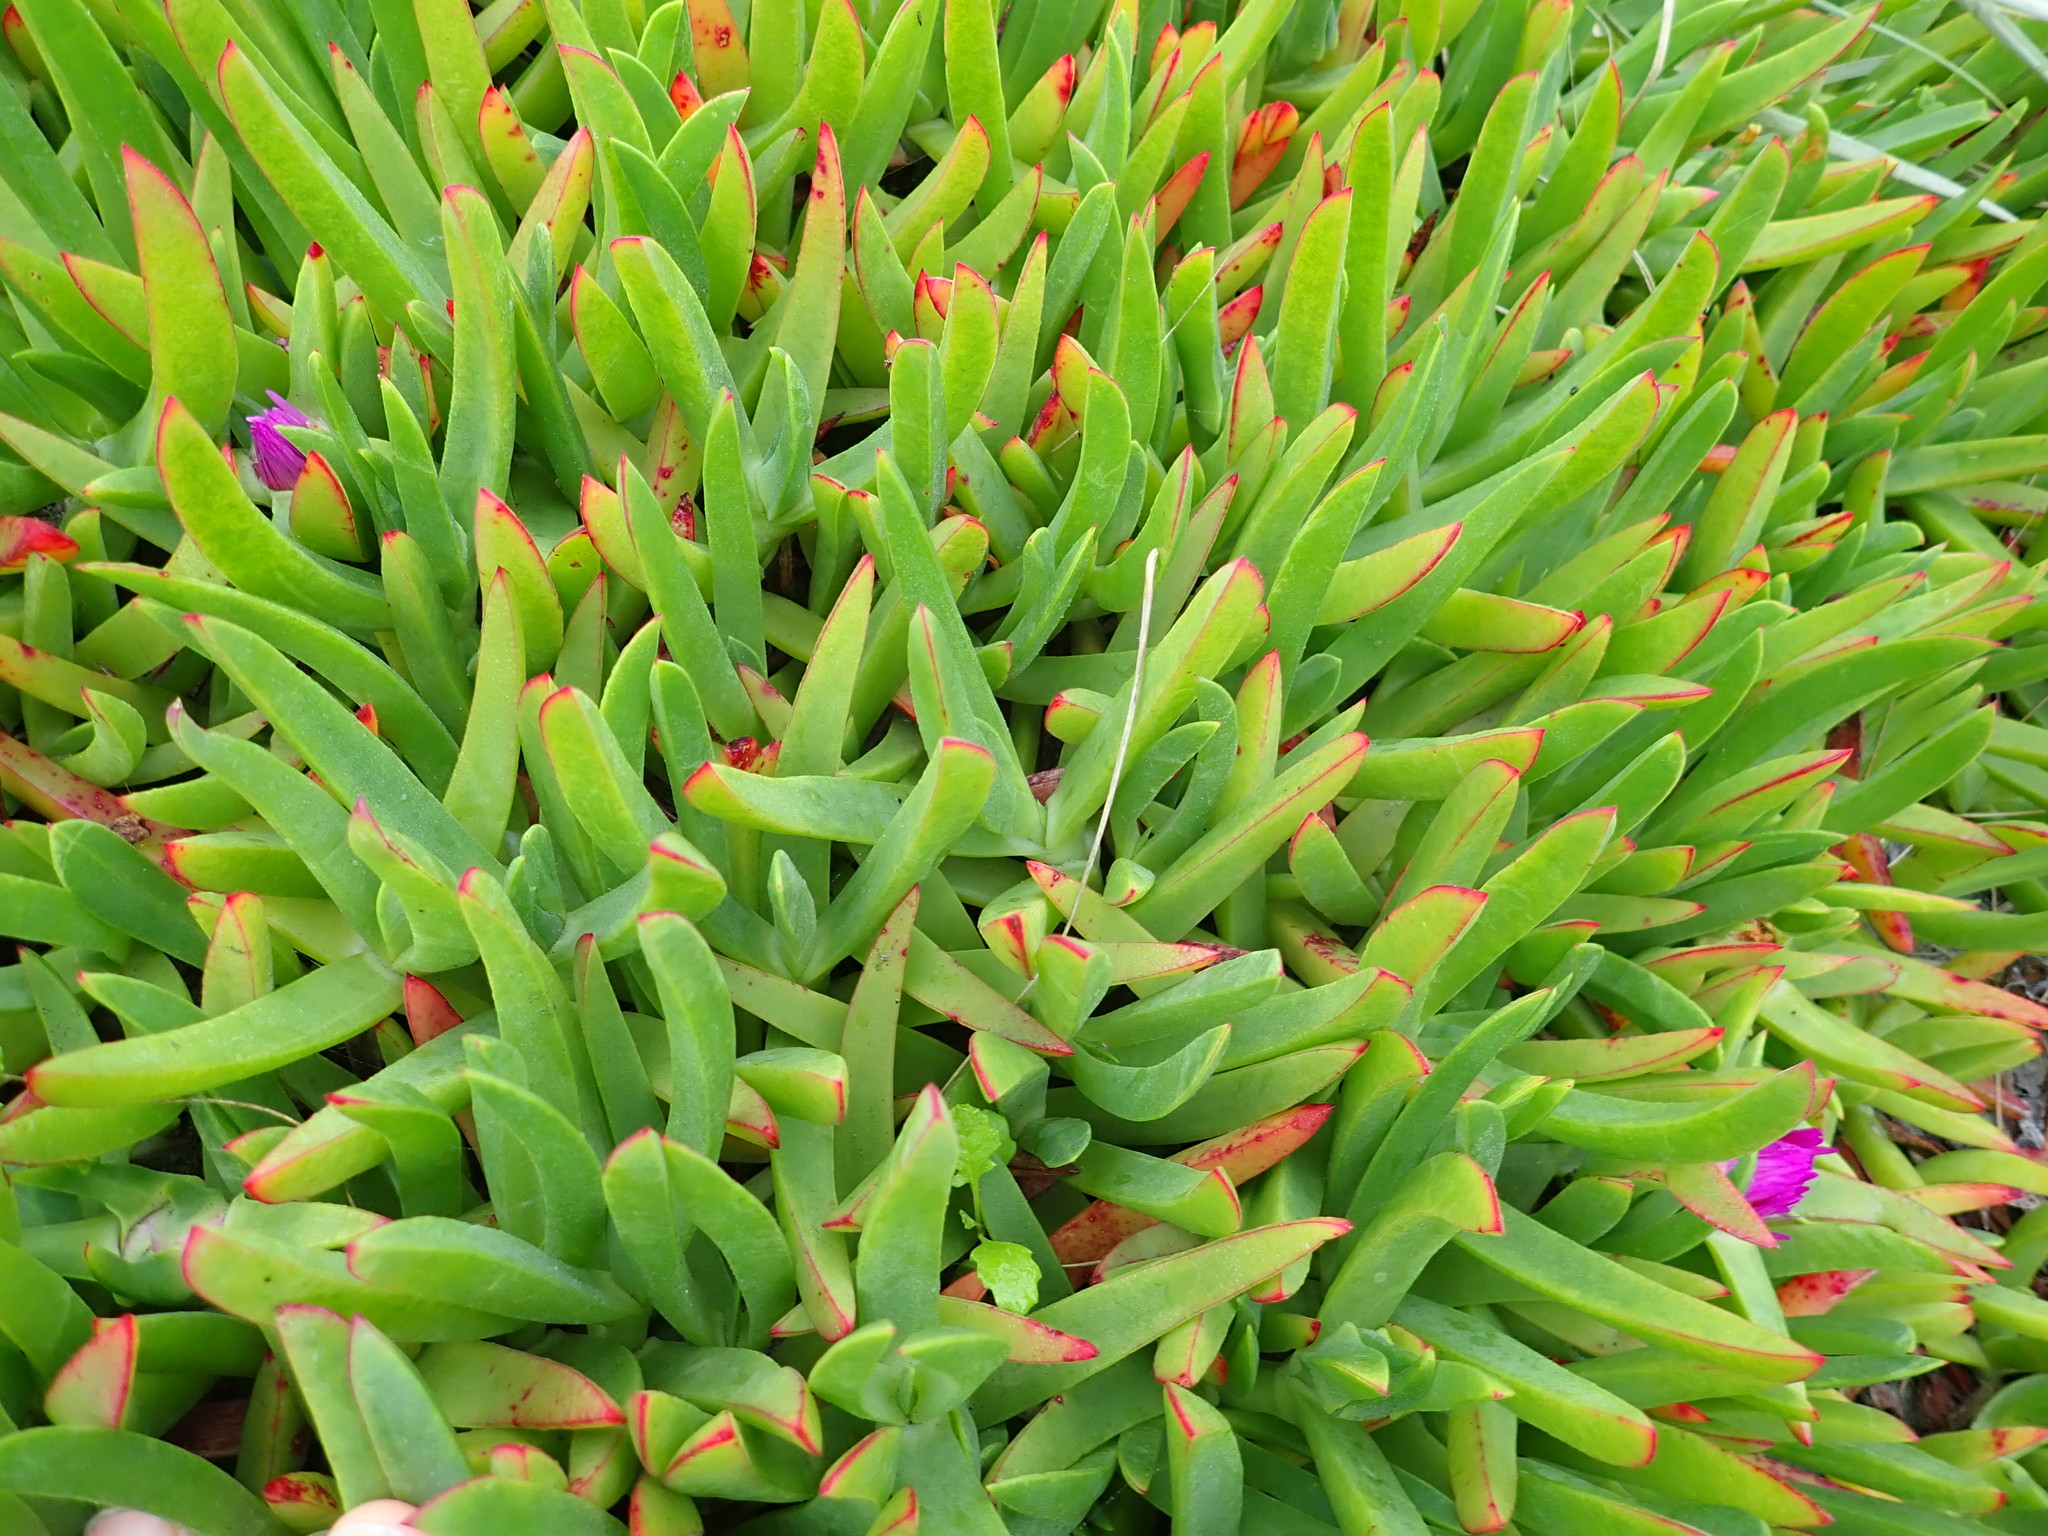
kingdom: Plantae
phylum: Tracheophyta
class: Magnoliopsida
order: Caryophyllales
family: Aizoaceae
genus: Carpobrotus
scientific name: Carpobrotus chilensis
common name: Sea fig
